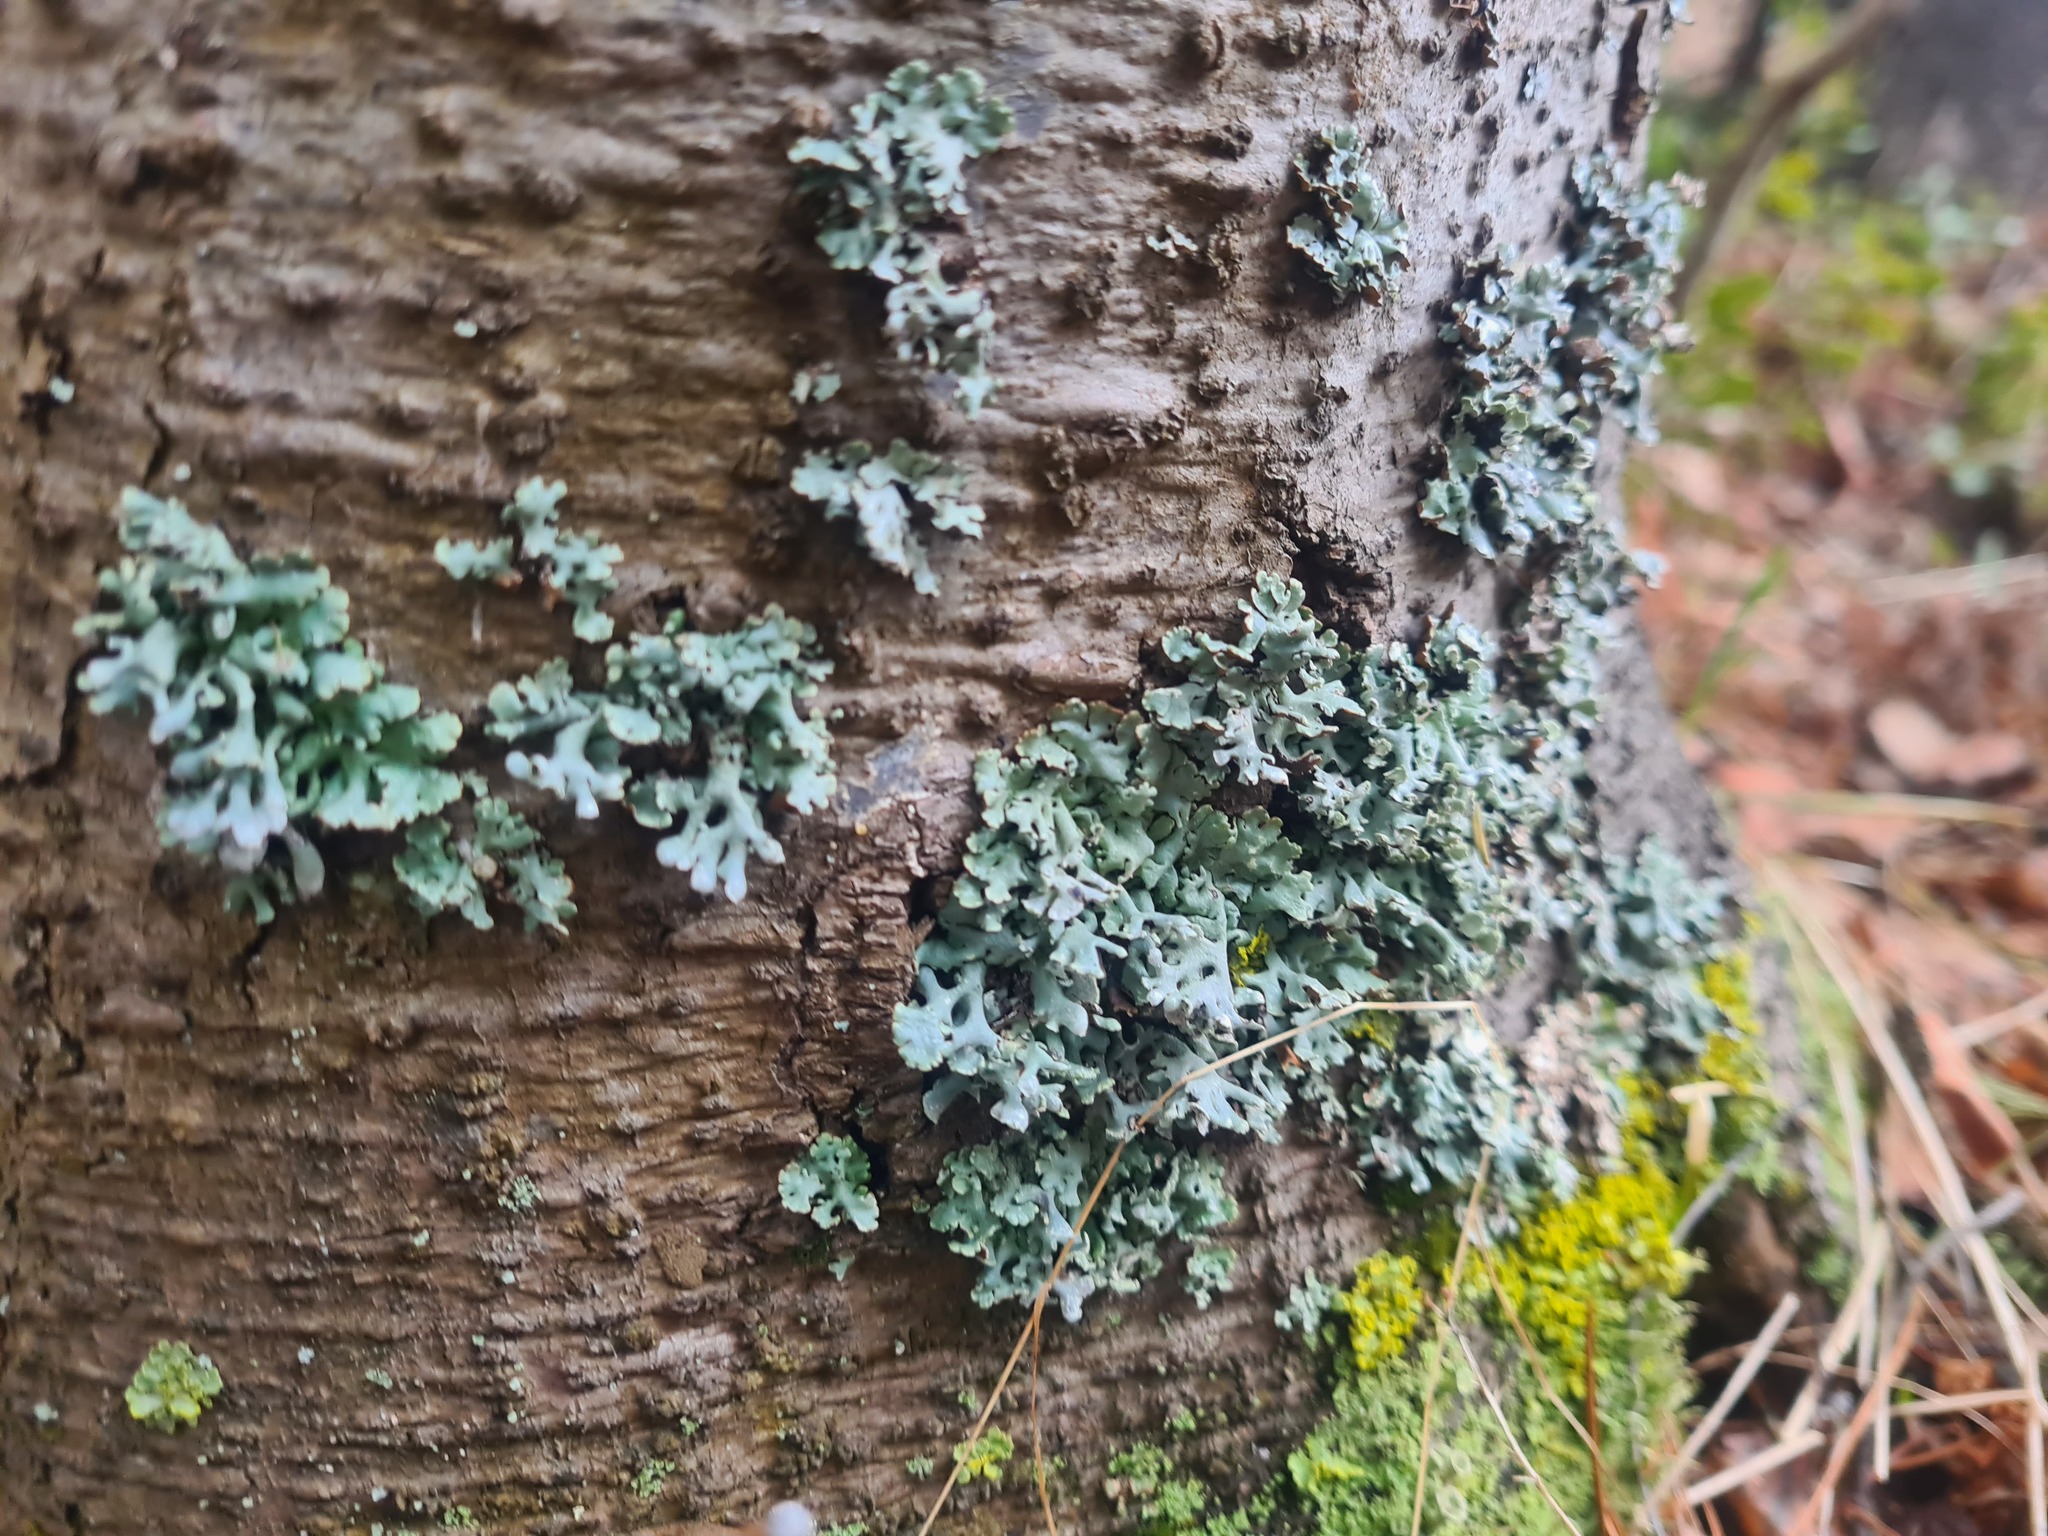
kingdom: Fungi
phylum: Ascomycota
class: Lecanoromycetes
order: Lecanorales
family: Parmeliaceae
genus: Hypogymnia
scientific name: Hypogymnia physodes
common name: Dark crottle
